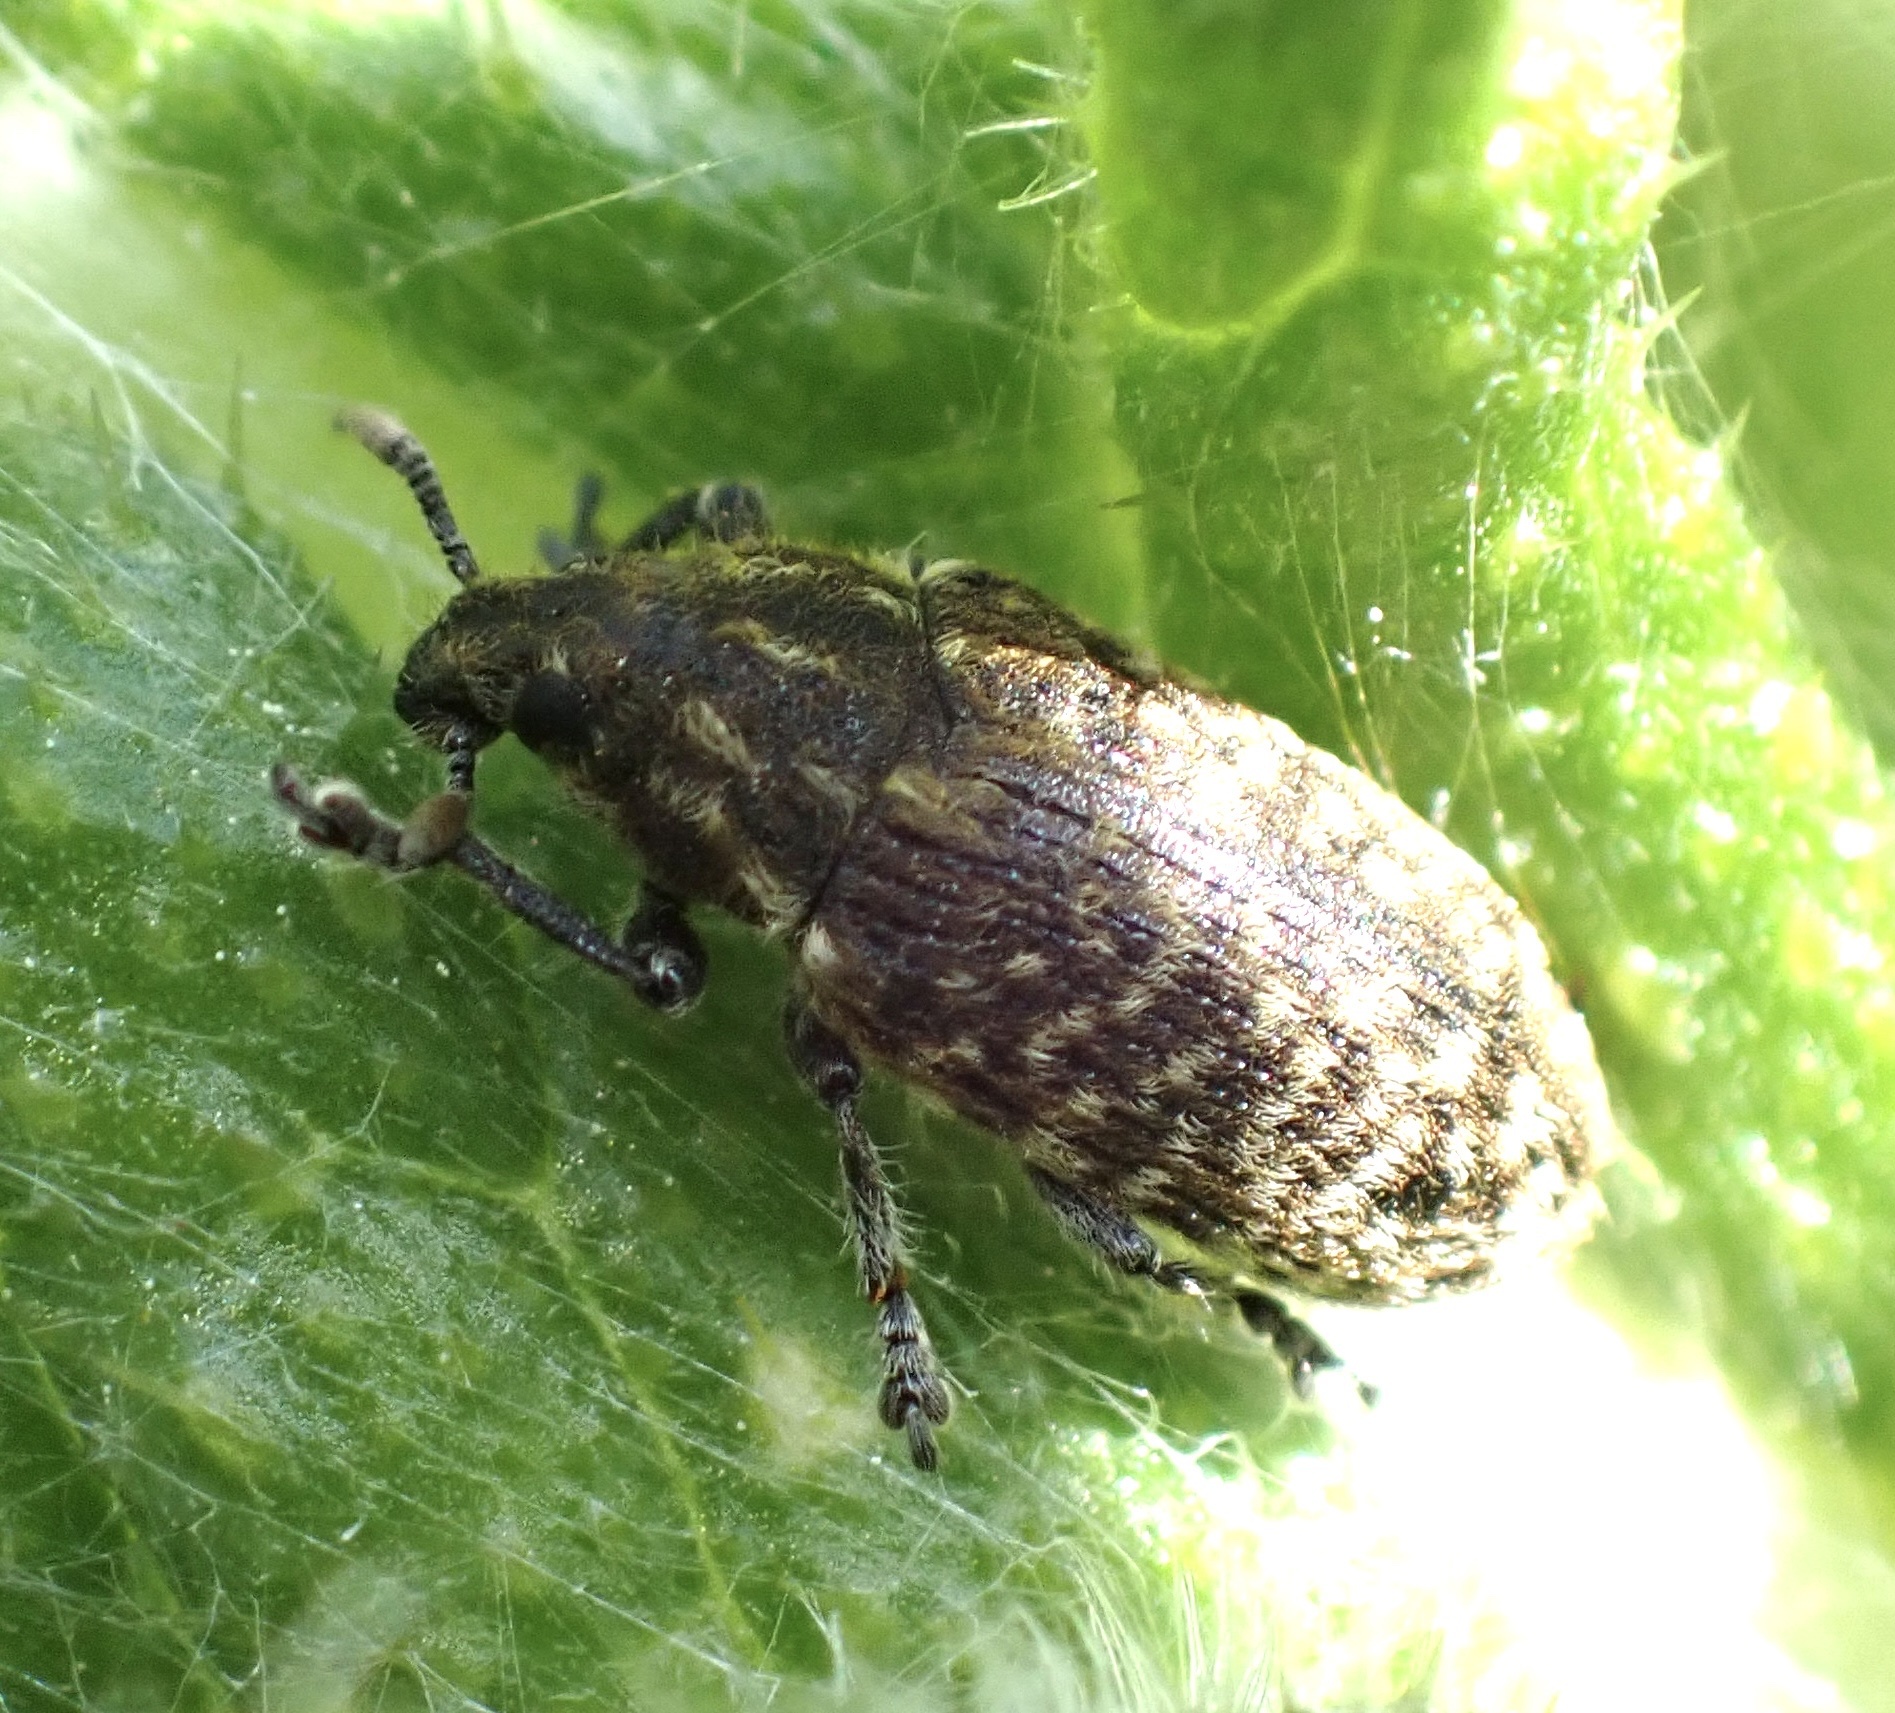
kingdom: Animalia
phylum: Arthropoda
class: Insecta
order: Coleoptera
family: Curculionidae
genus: Rhinocyllus
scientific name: Rhinocyllus conicus
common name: Weevil
